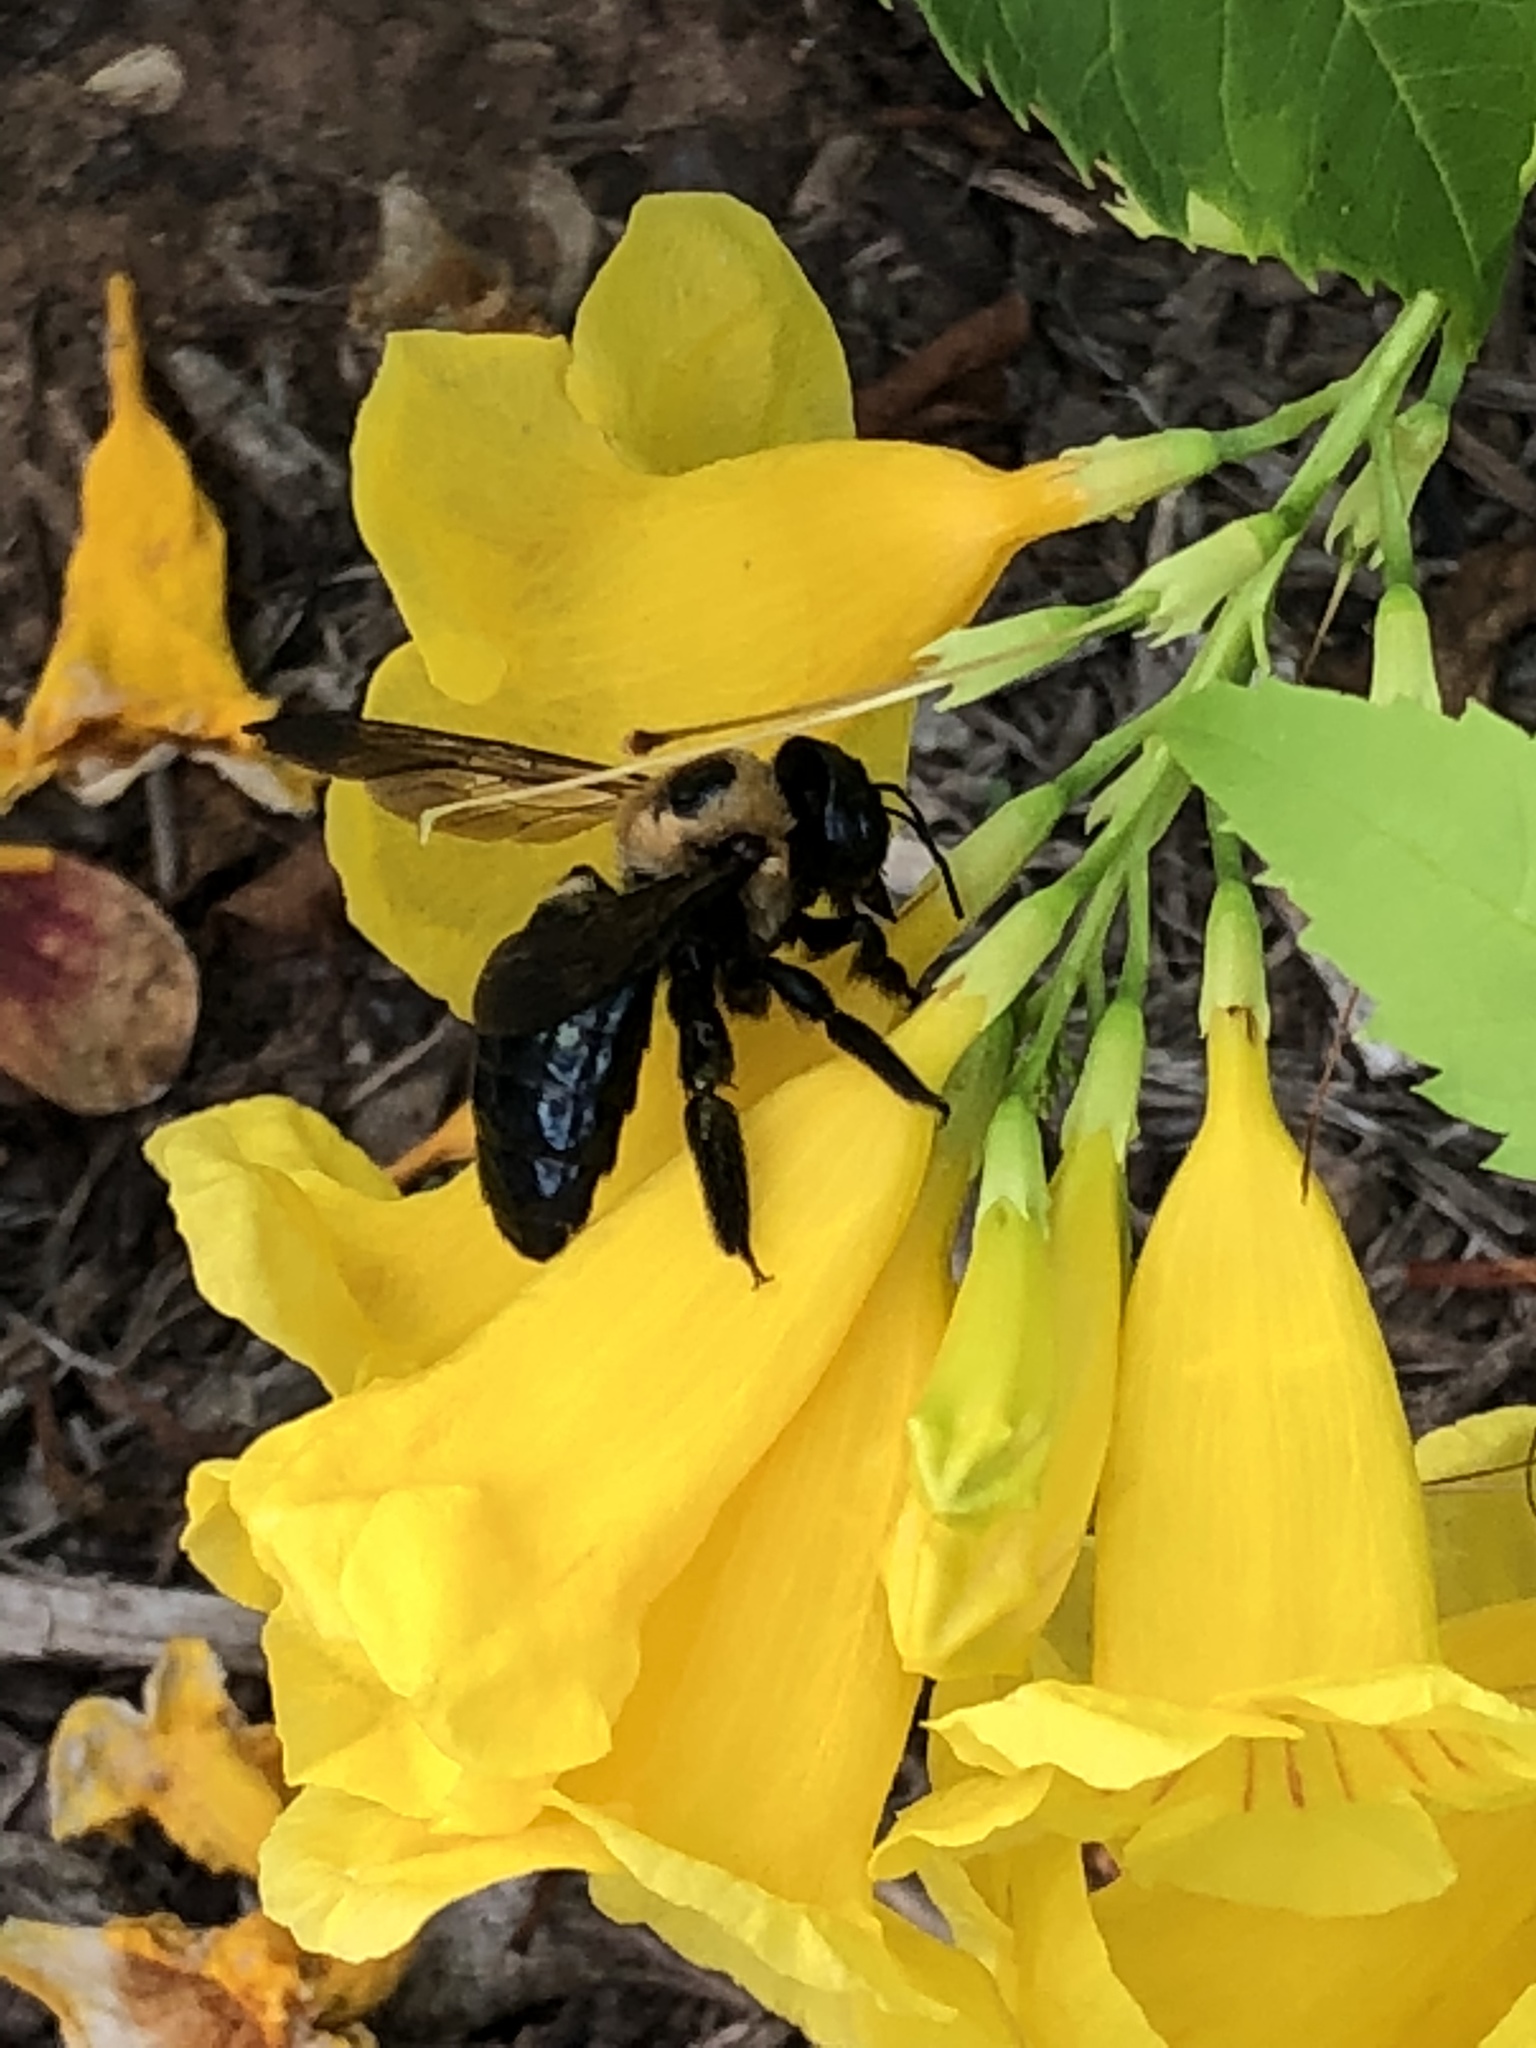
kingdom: Animalia
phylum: Arthropoda
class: Insecta
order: Hymenoptera
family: Apidae
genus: Xylocopa
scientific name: Xylocopa virginica
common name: Carpenter bee
